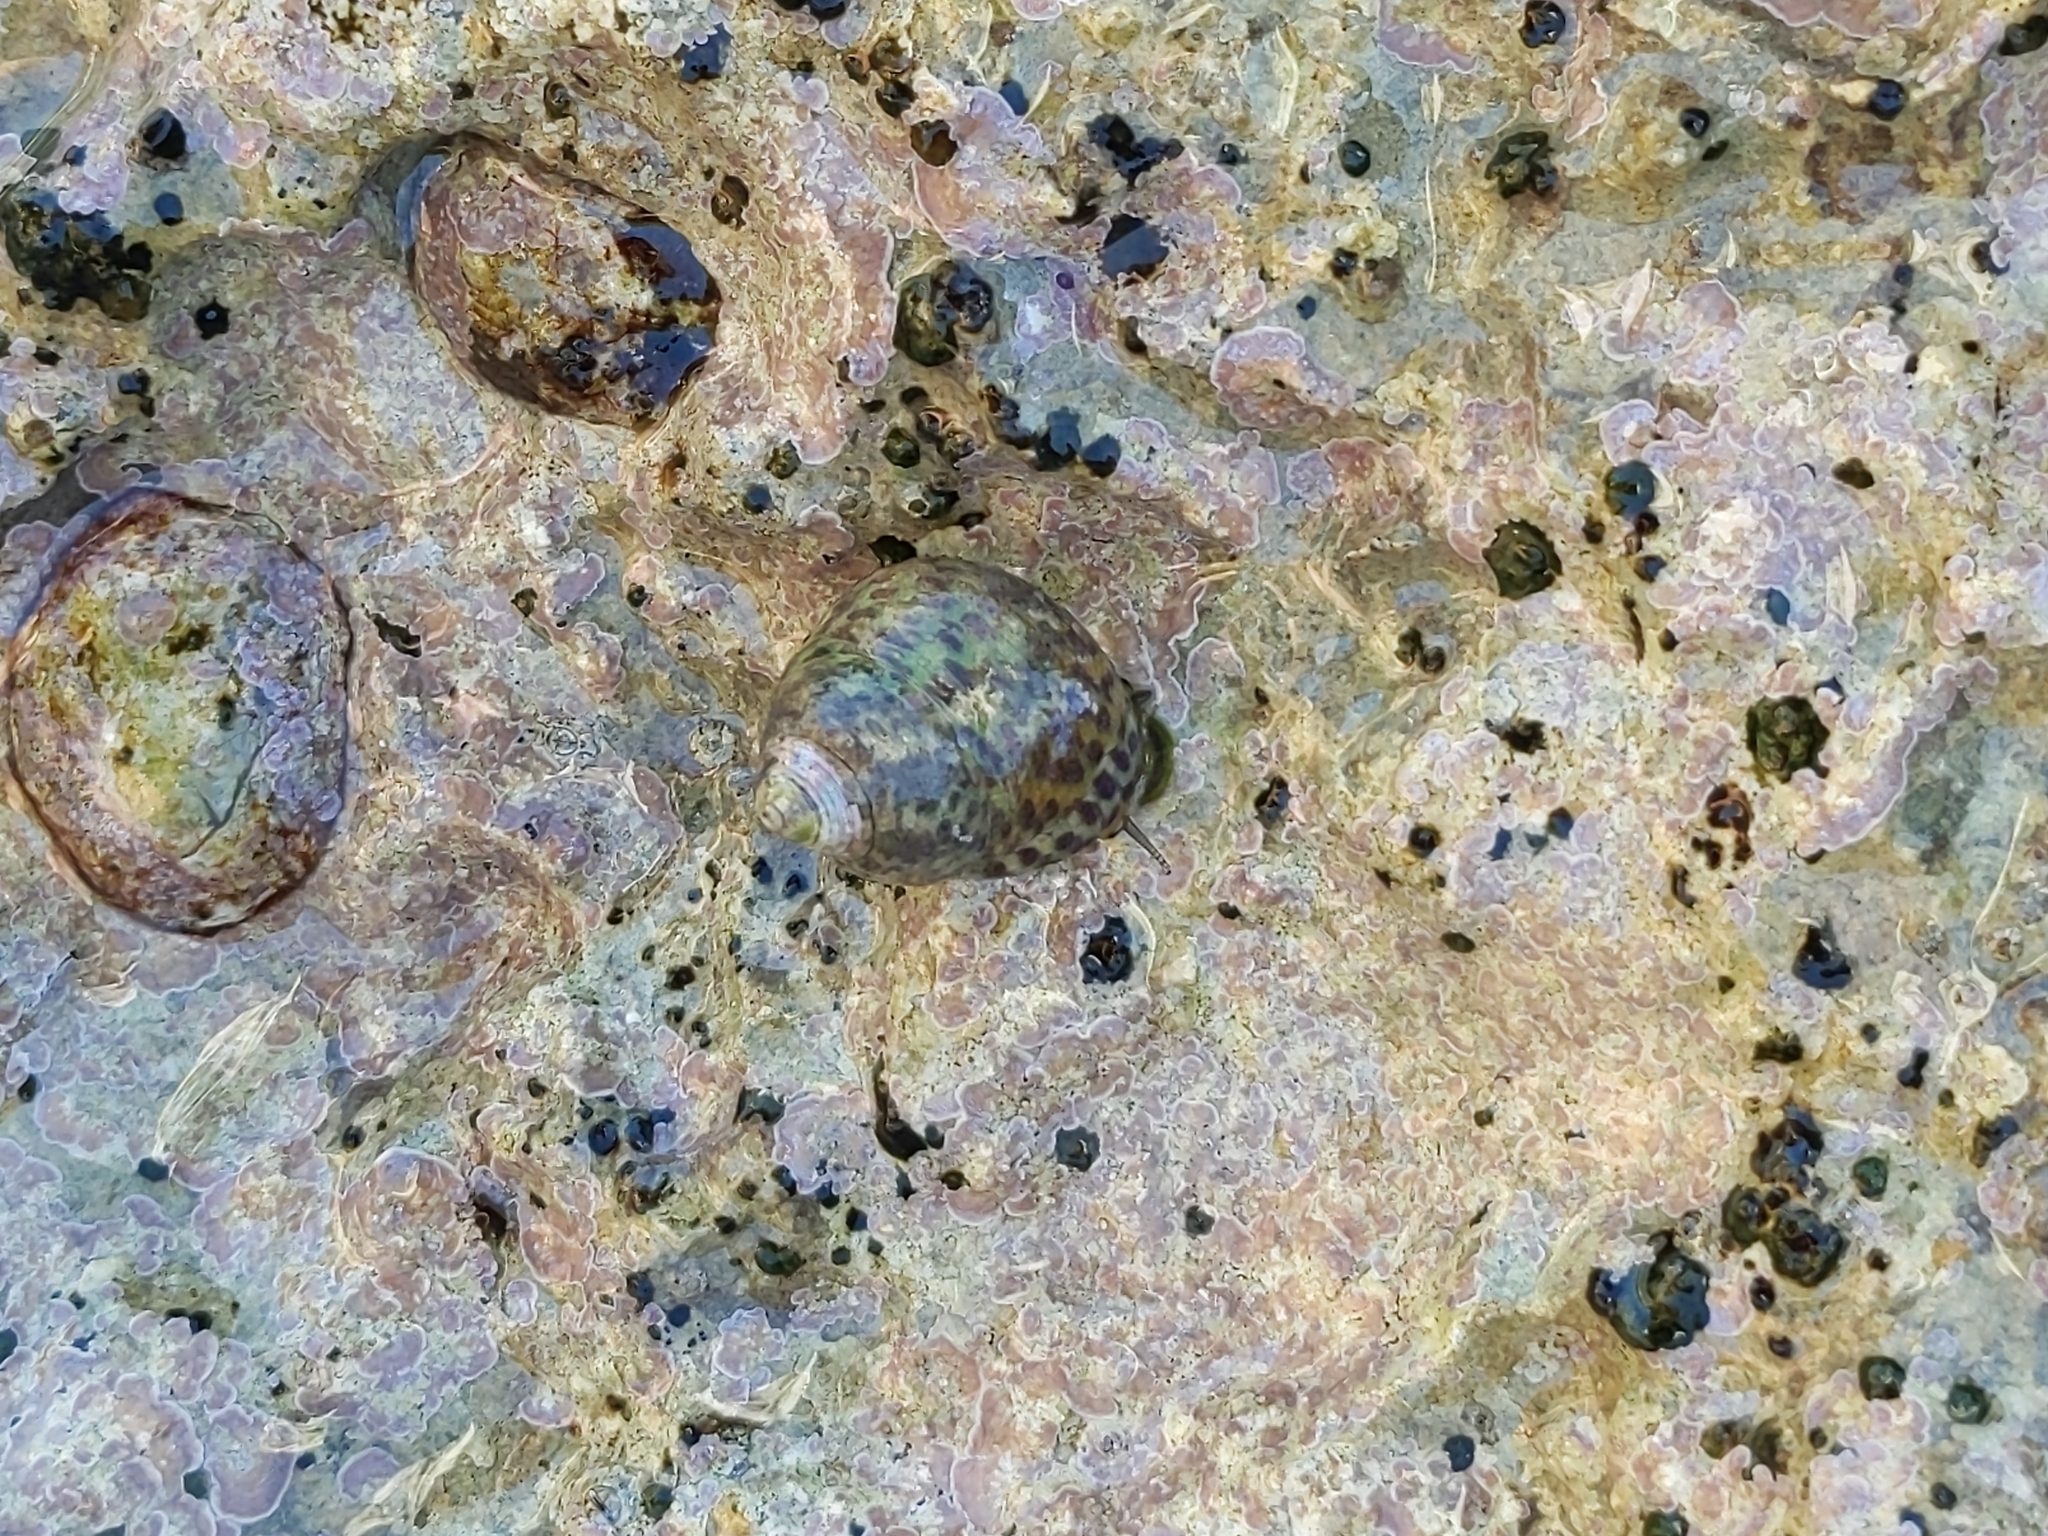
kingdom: Animalia
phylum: Mollusca
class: Gastropoda
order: Trochida
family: Trochidae
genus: Phorcus
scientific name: Phorcus turbinatus
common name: Turbinate monodont
